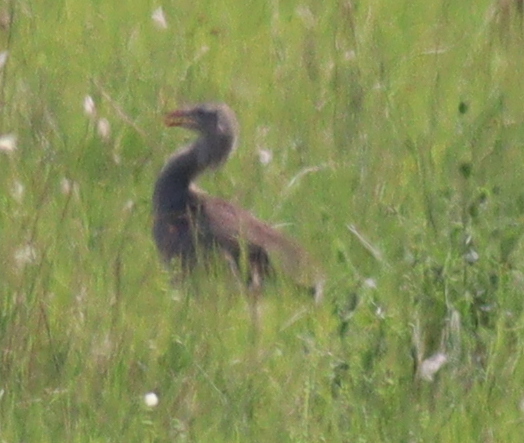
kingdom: Animalia
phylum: Chordata
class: Aves
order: Cariamiformes
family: Cariamidae
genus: Cariama
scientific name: Cariama cristata
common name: Red-legged seriema
